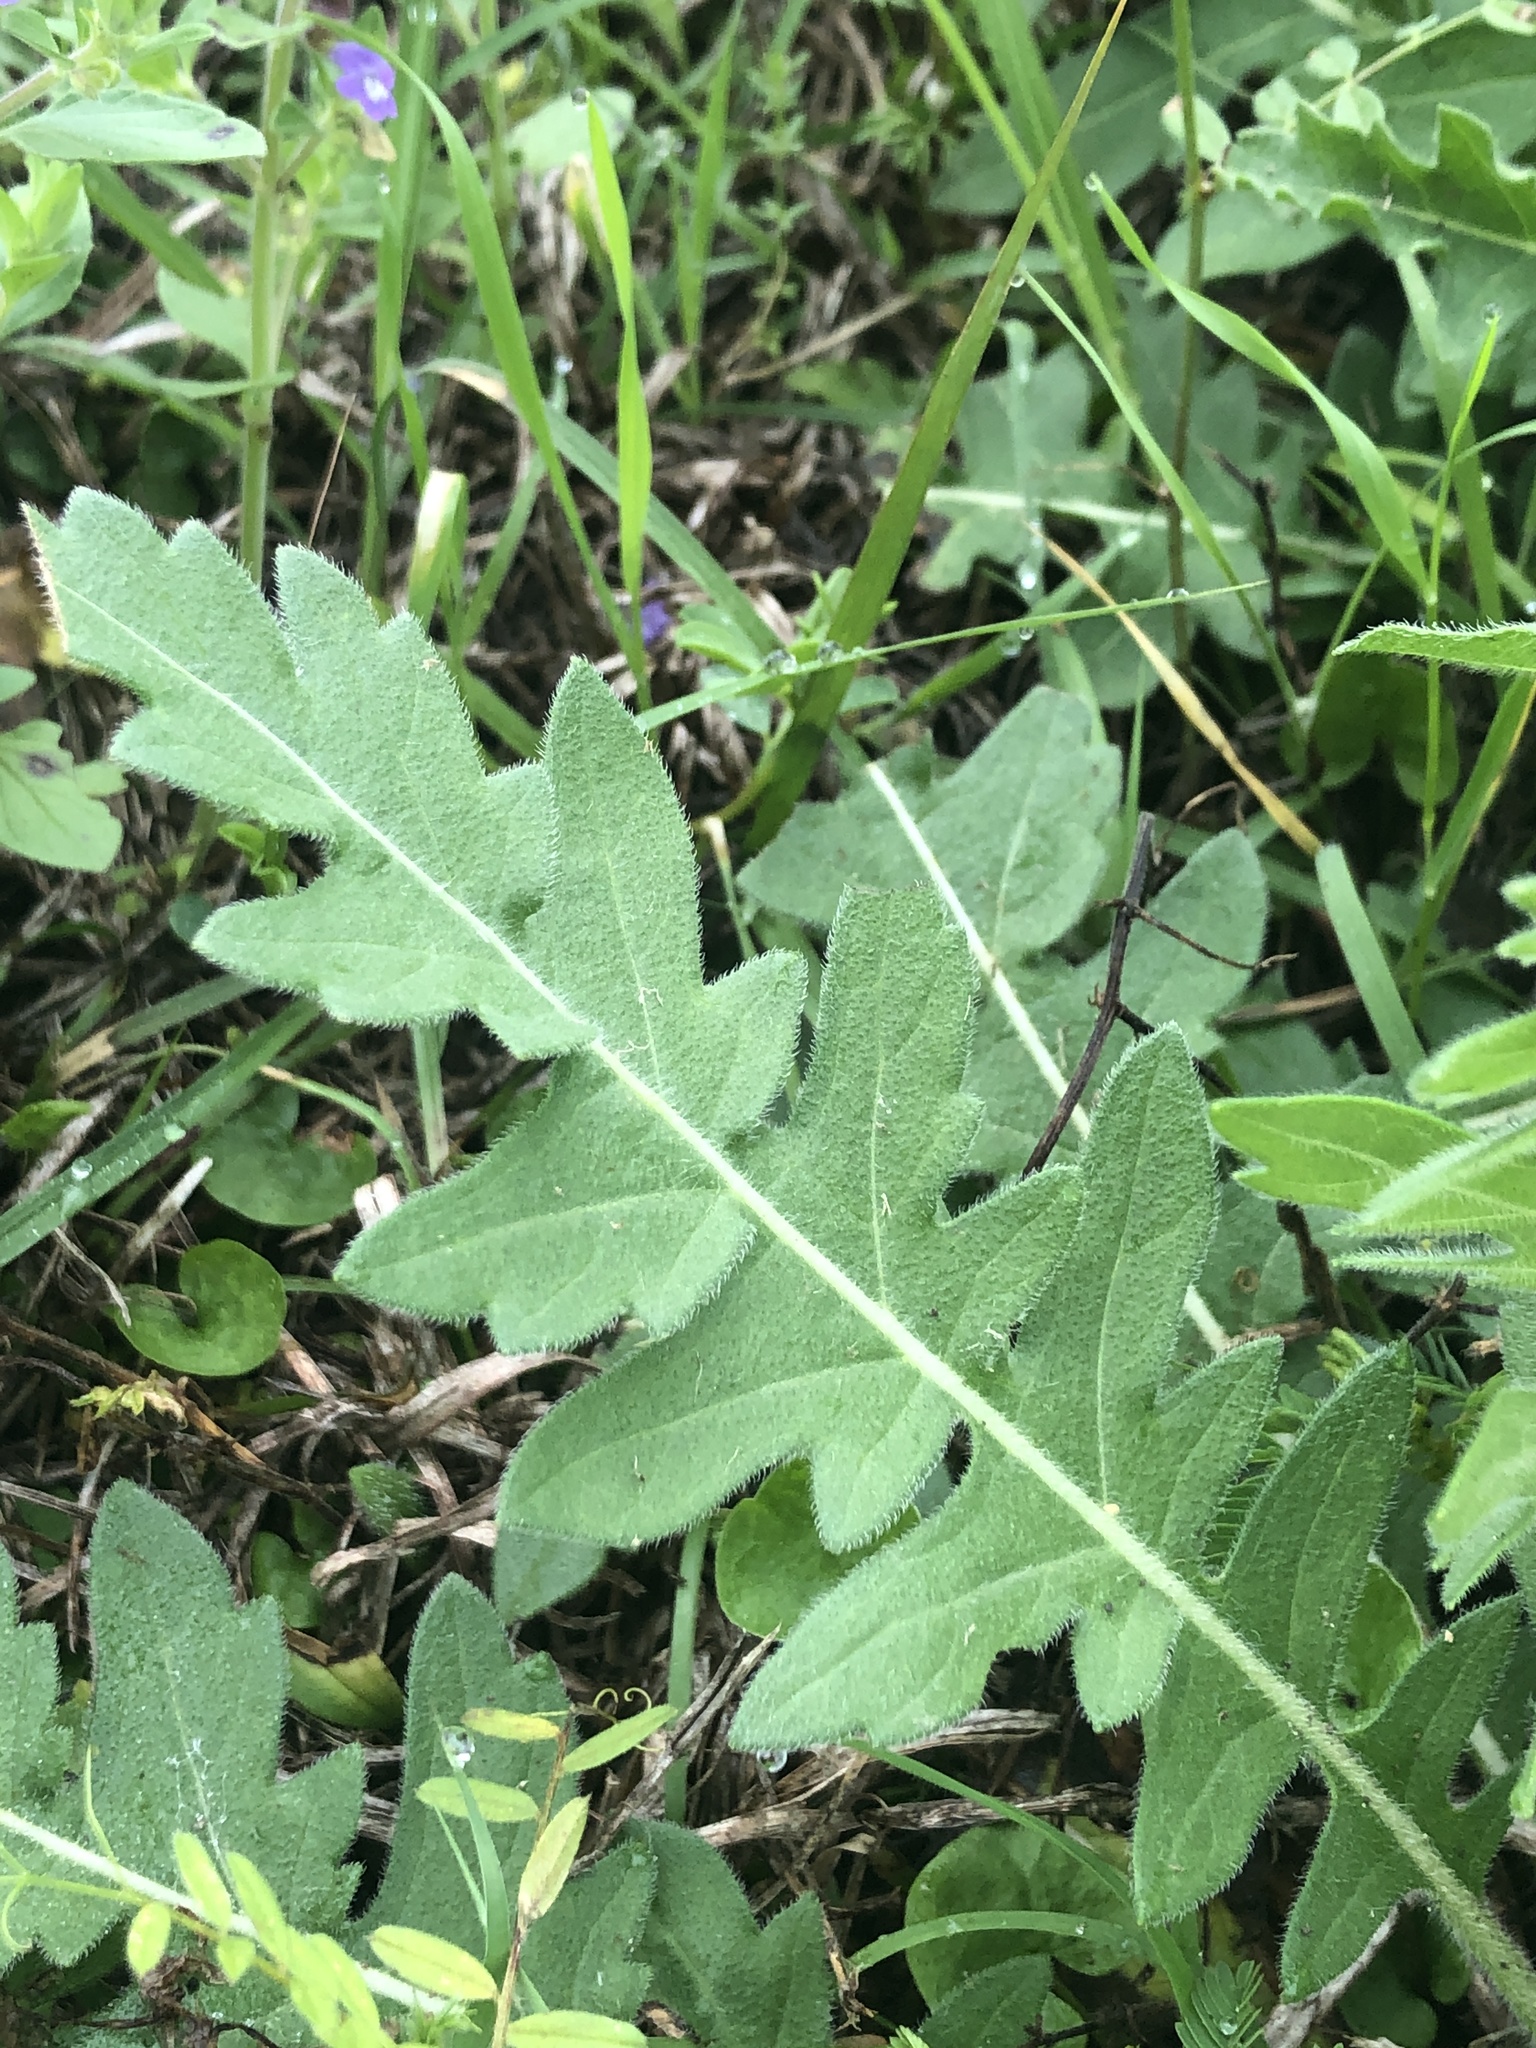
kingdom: Plantae
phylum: Tracheophyta
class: Magnoliopsida
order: Asterales
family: Asteraceae
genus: Engelmannia
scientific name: Engelmannia peristenia
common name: Engelmann's daisy
